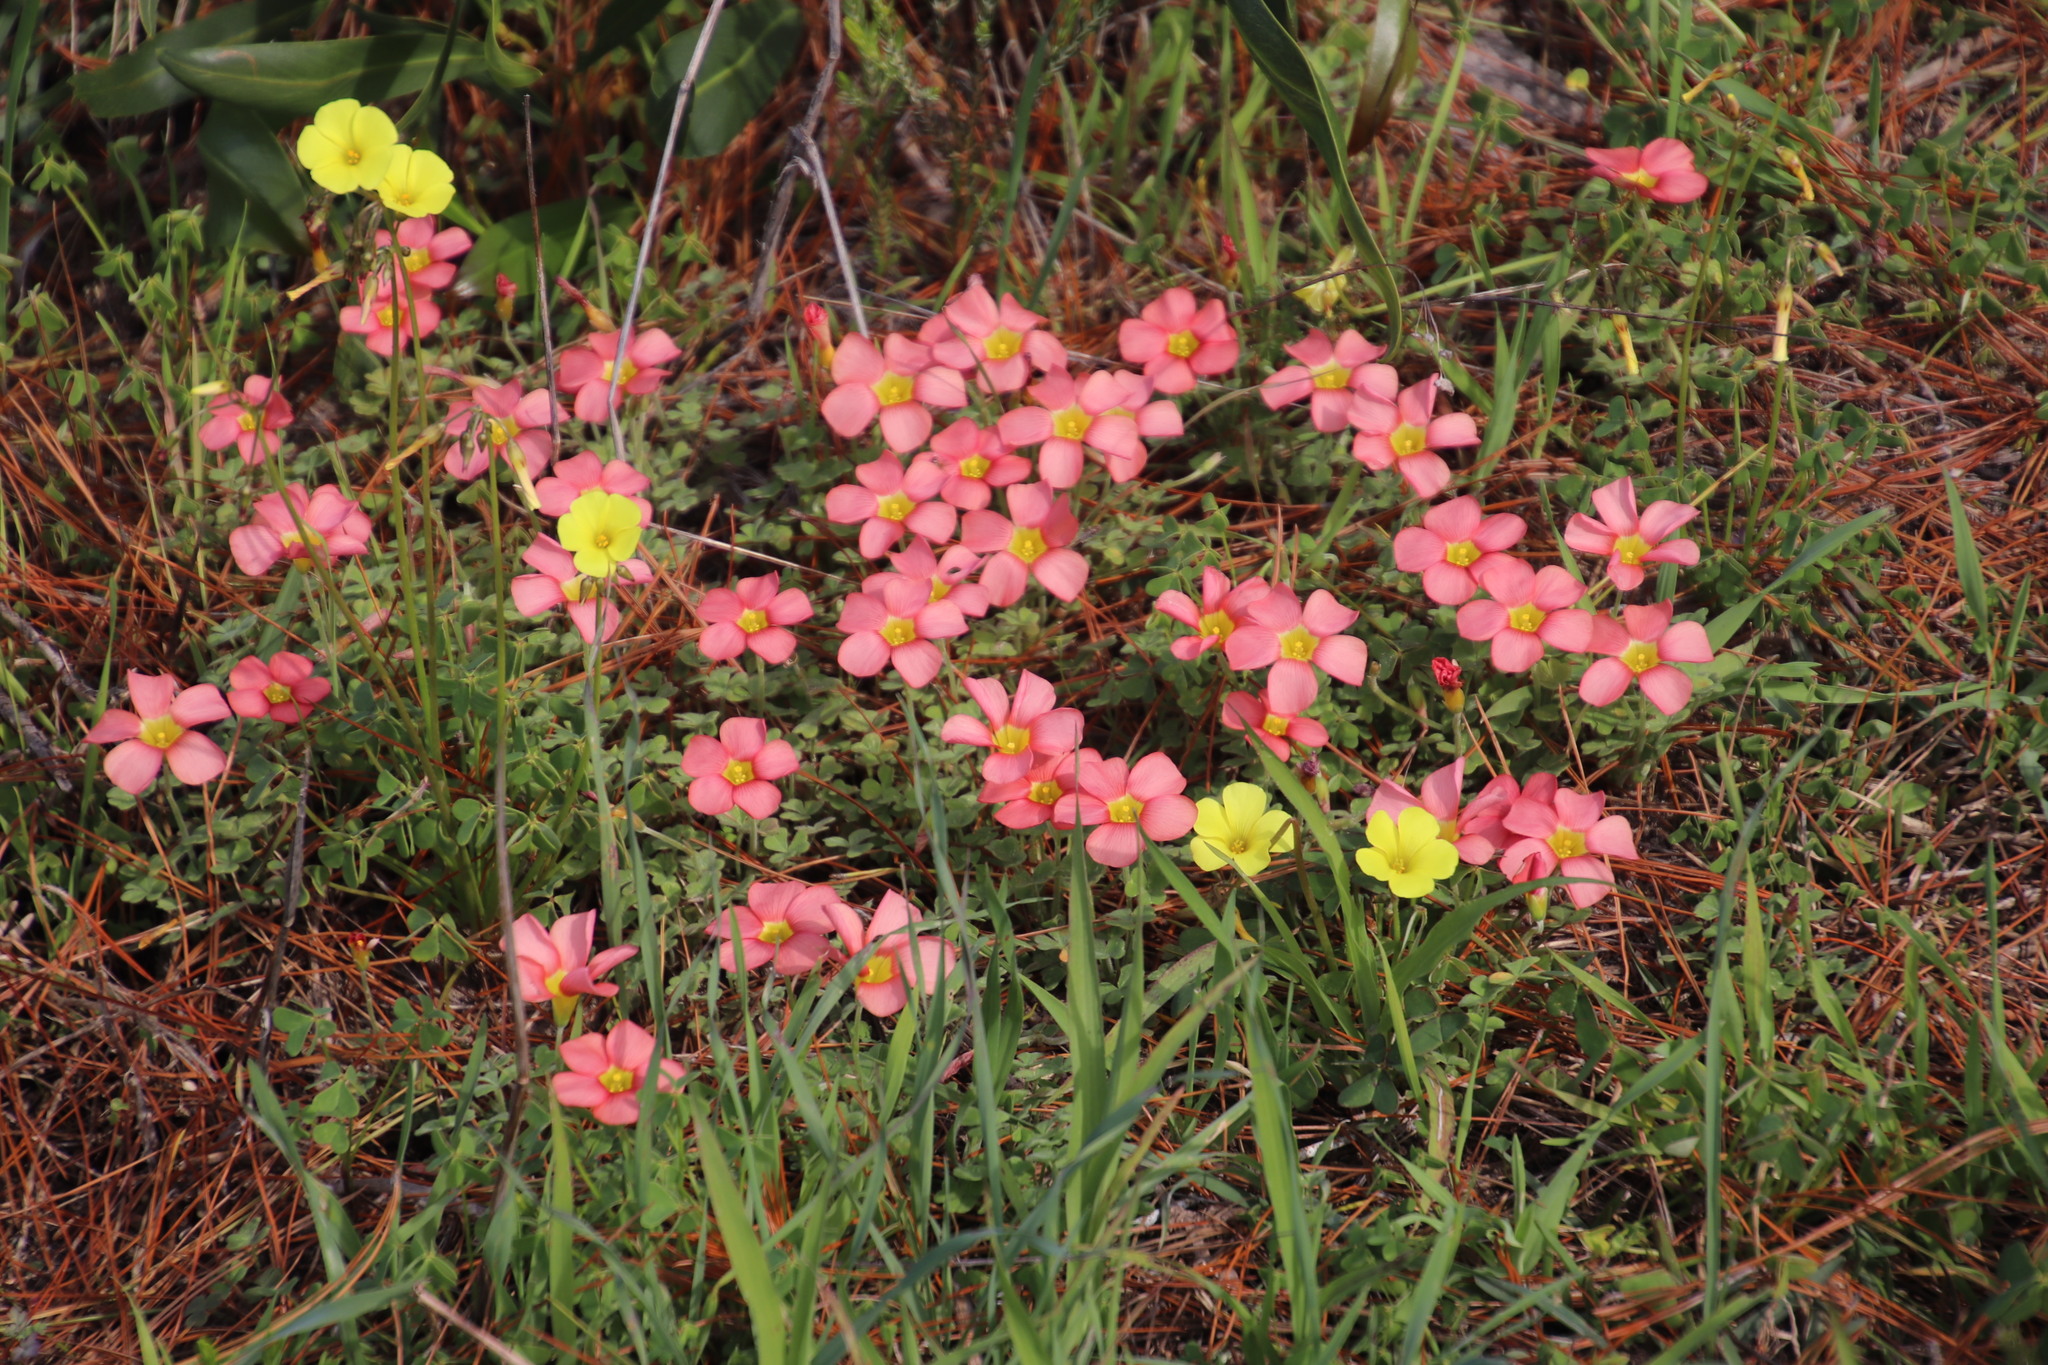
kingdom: Plantae
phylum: Tracheophyta
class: Magnoliopsida
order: Oxalidales
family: Oxalidaceae
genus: Oxalis
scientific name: Oxalis obtusa
